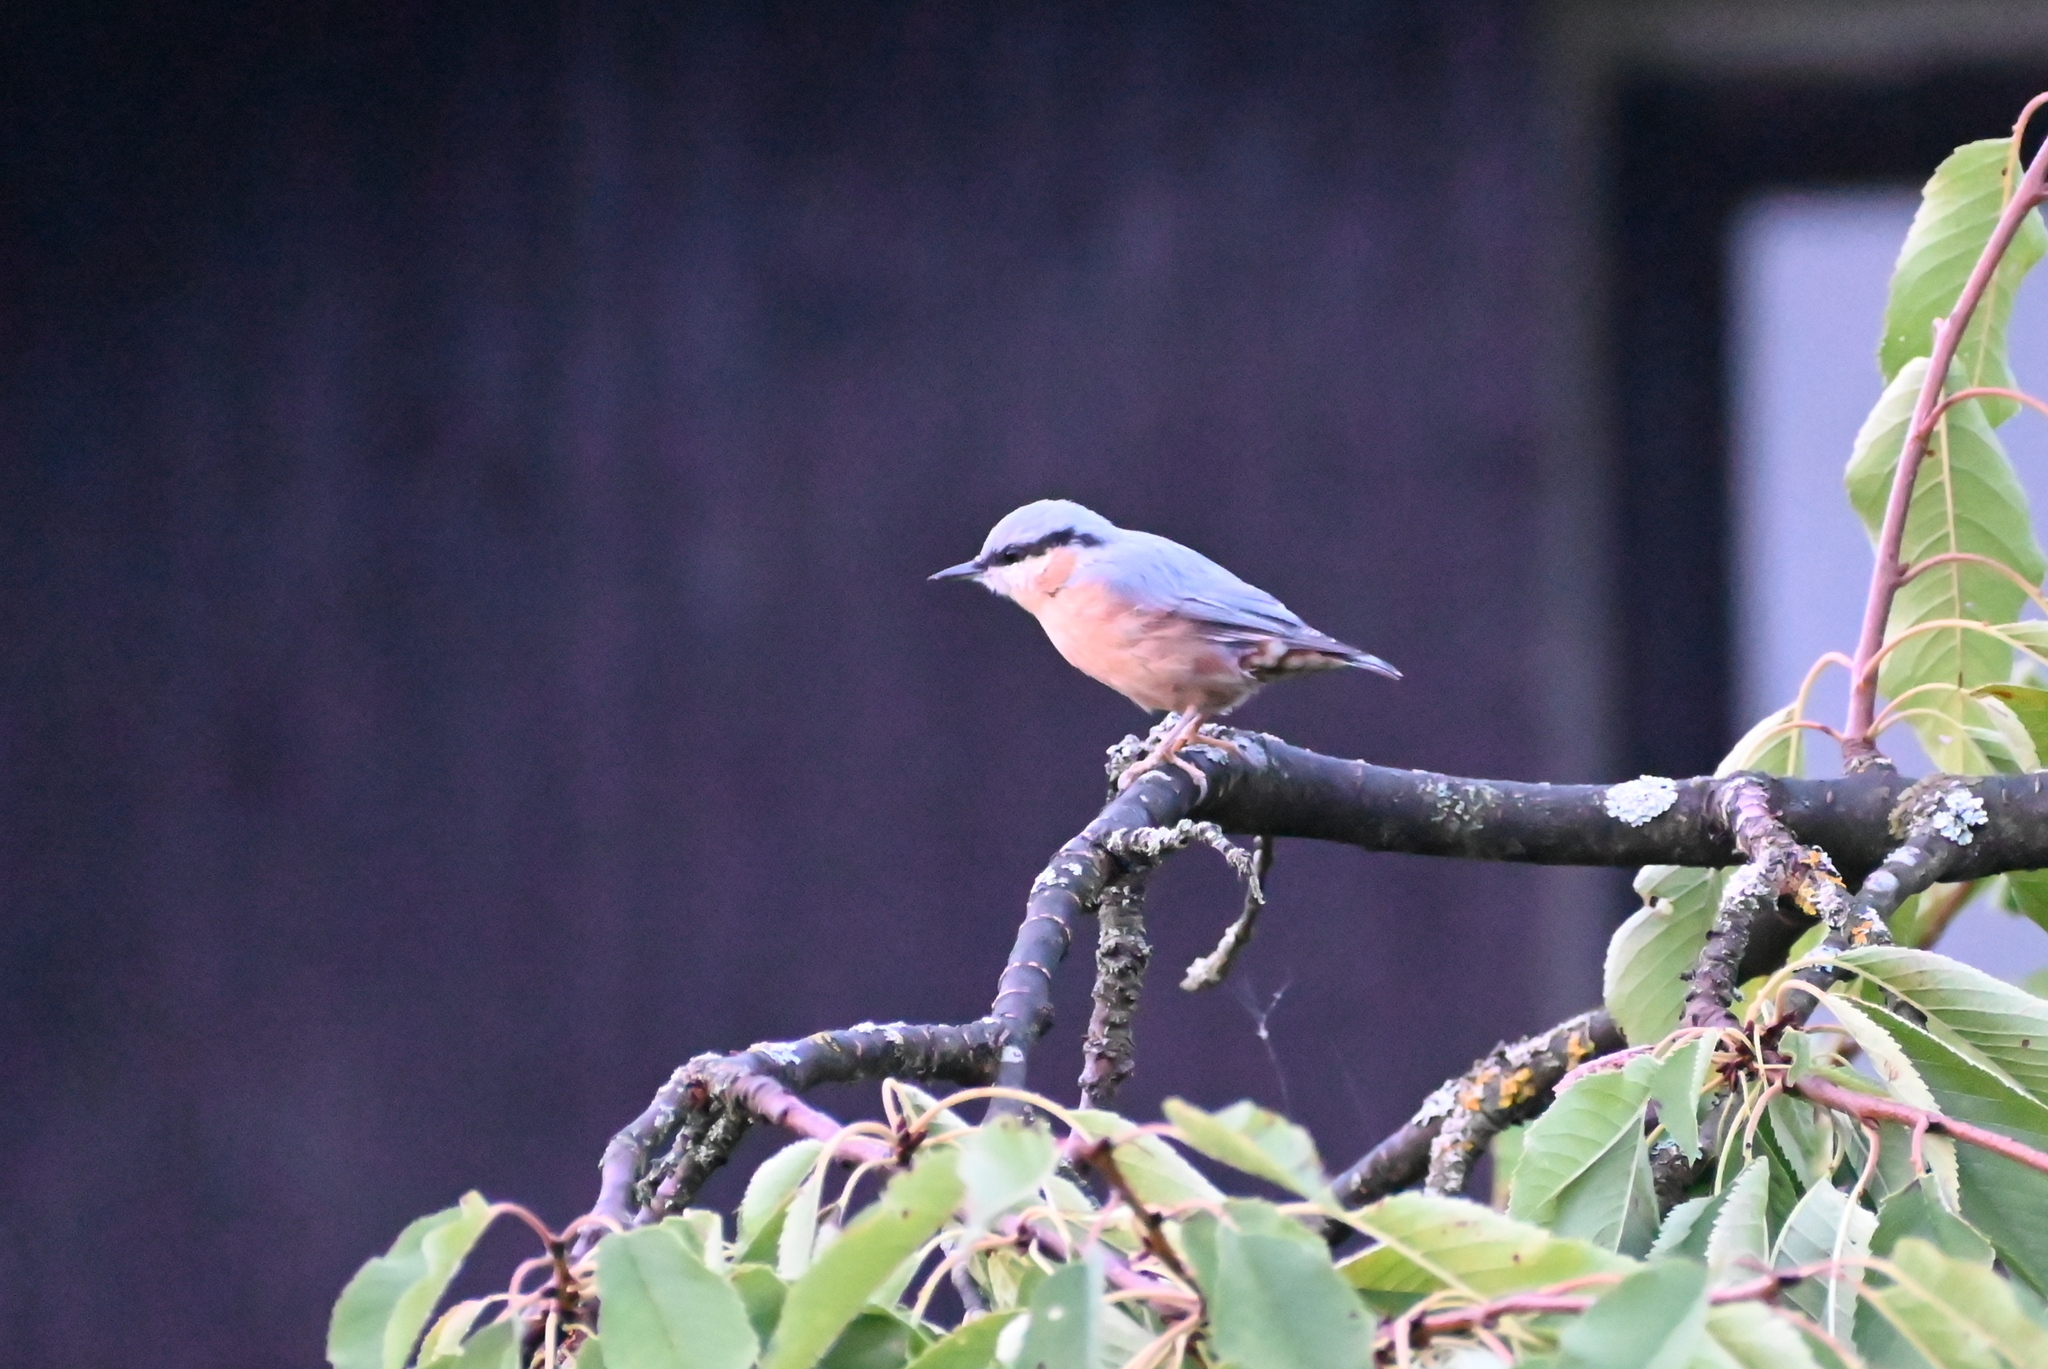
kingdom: Animalia
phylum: Chordata
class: Aves
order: Passeriformes
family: Sittidae
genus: Sitta
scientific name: Sitta europaea
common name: Eurasian nuthatch
